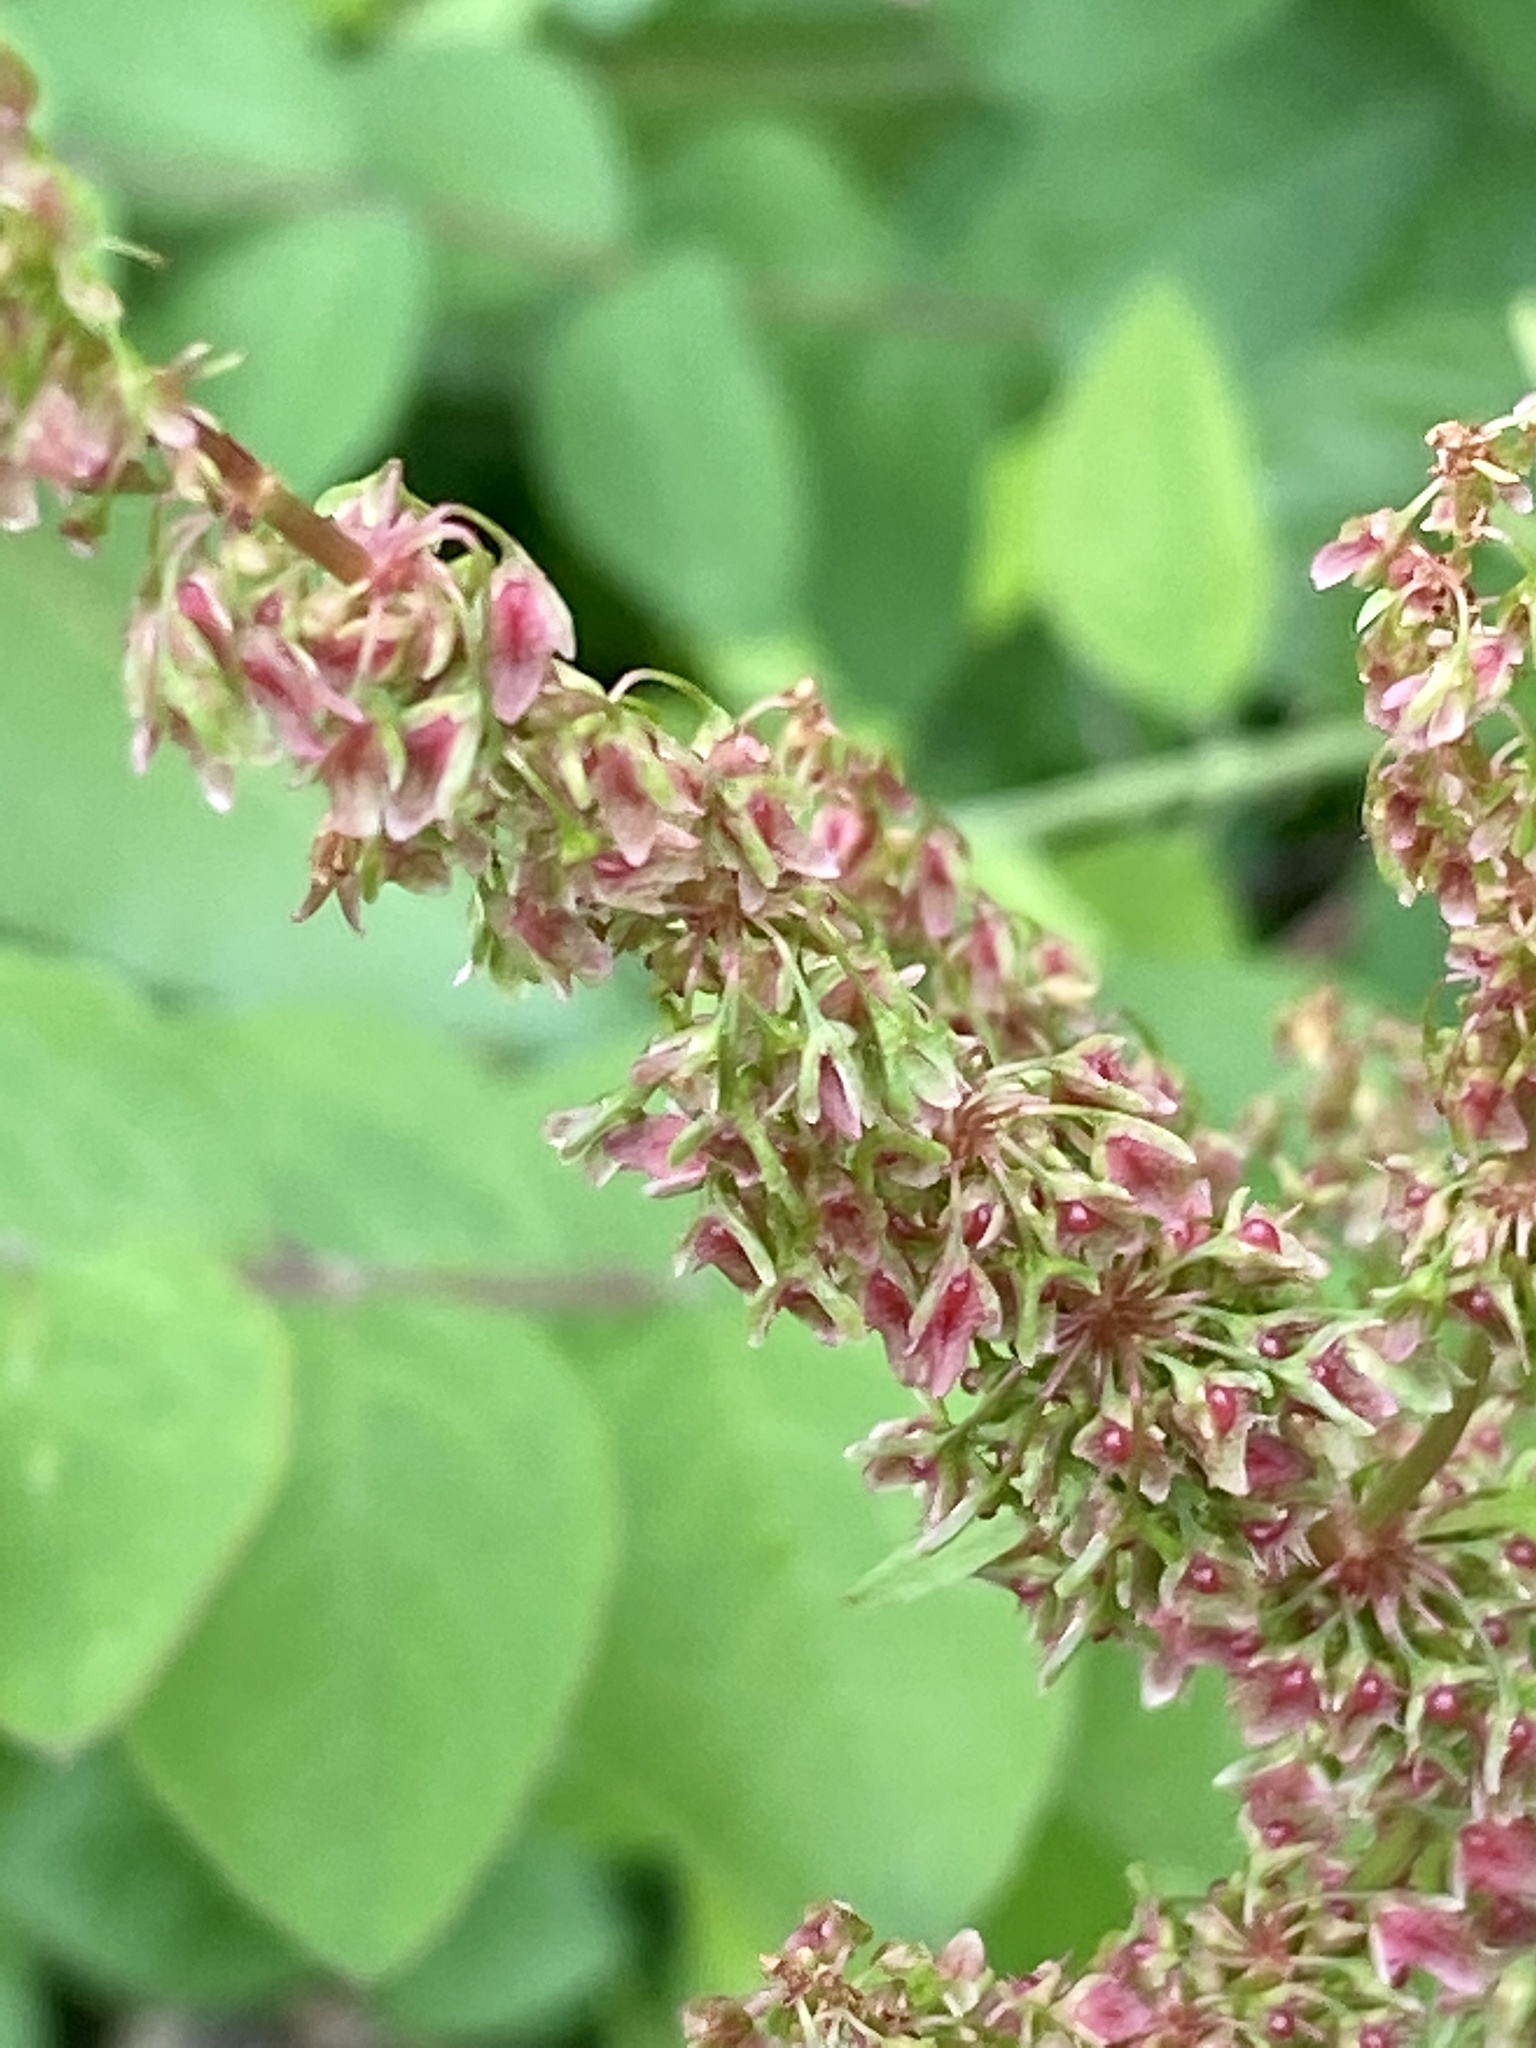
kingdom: Plantae
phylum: Tracheophyta
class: Magnoliopsida
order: Caryophyllales
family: Polygonaceae
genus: Rumex
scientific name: Rumex obtusifolius
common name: Bitter dock
